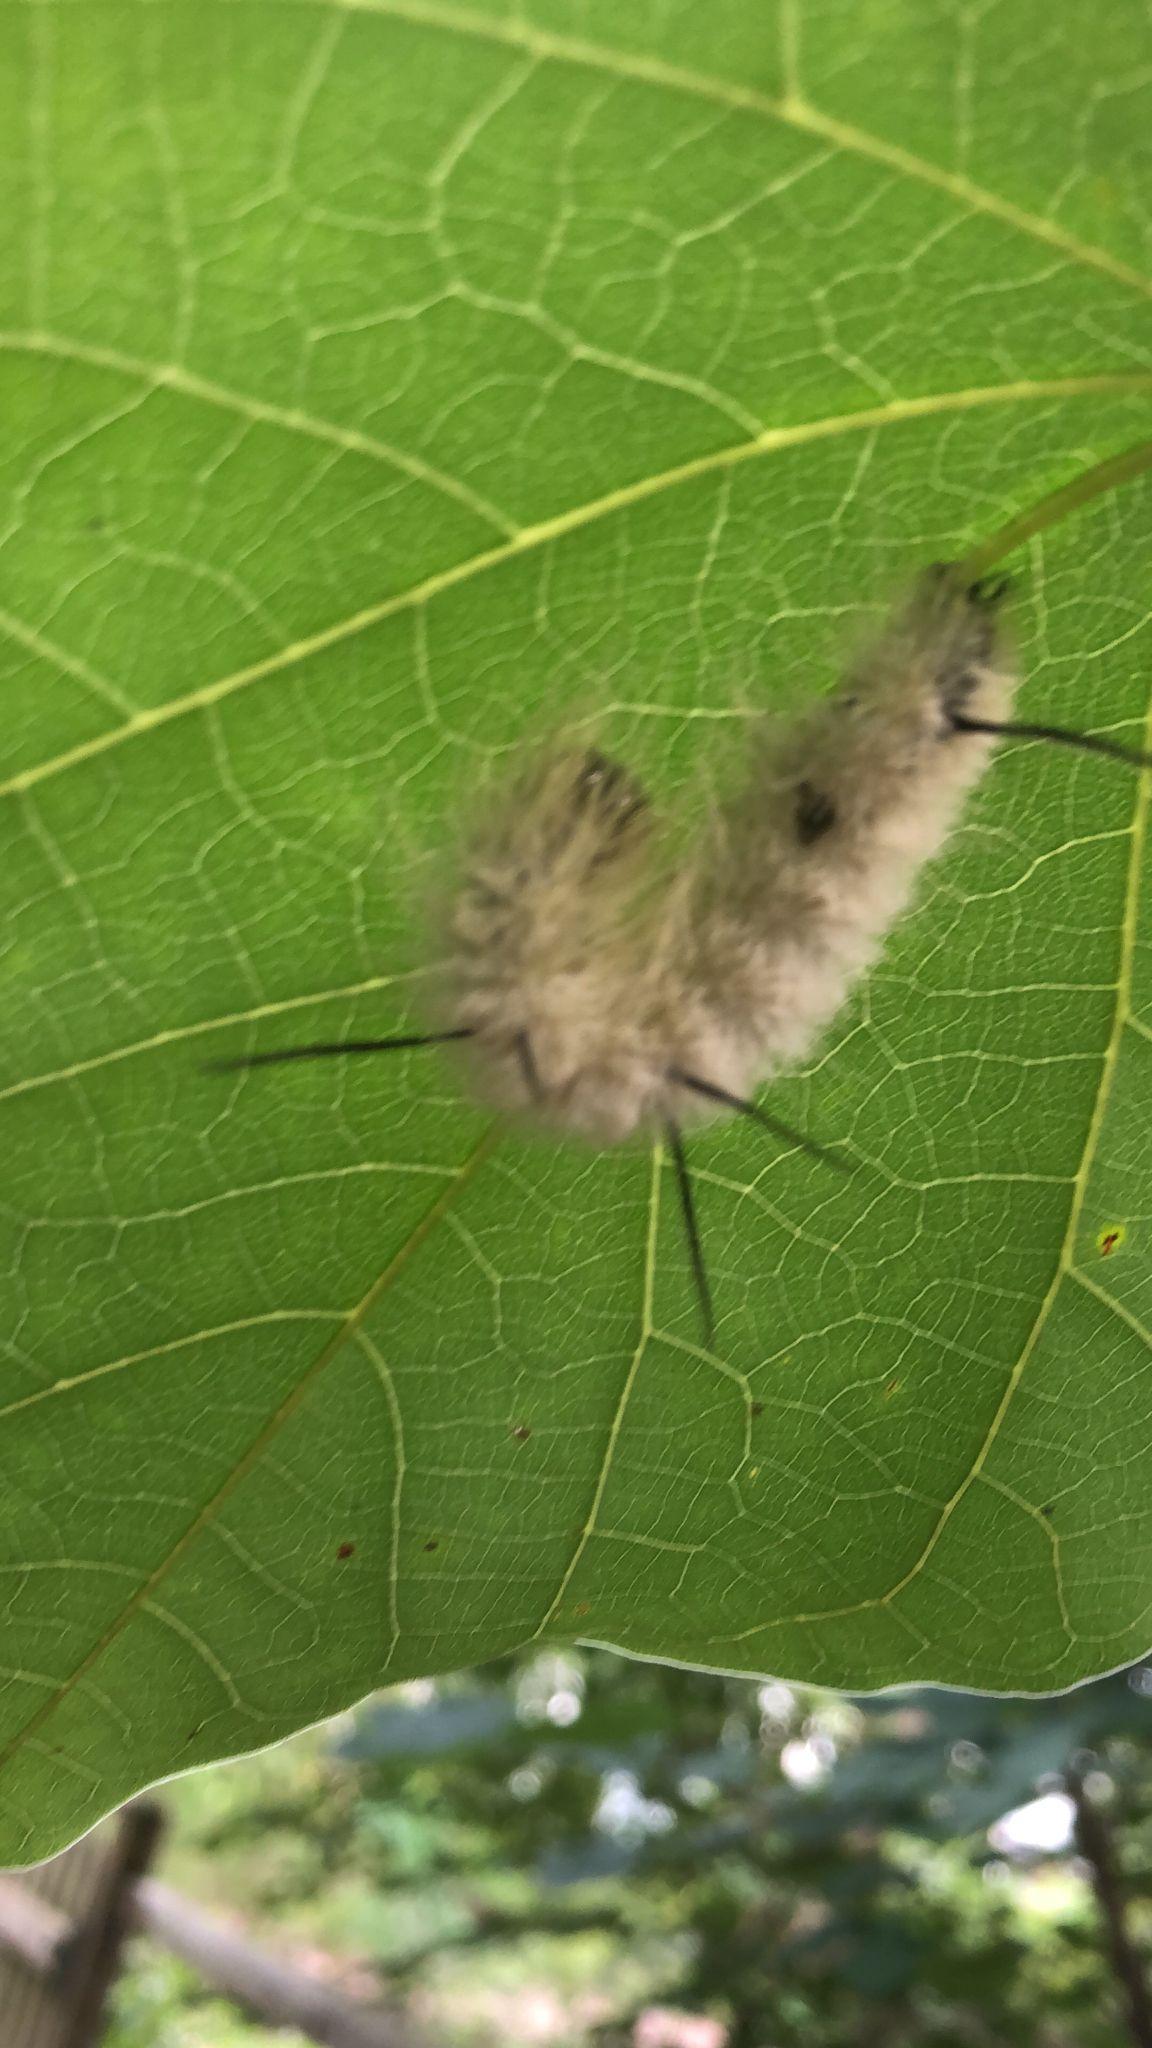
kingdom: Animalia
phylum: Arthropoda
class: Insecta
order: Lepidoptera
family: Noctuidae
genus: Acronicta
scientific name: Acronicta americana
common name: American dagger
